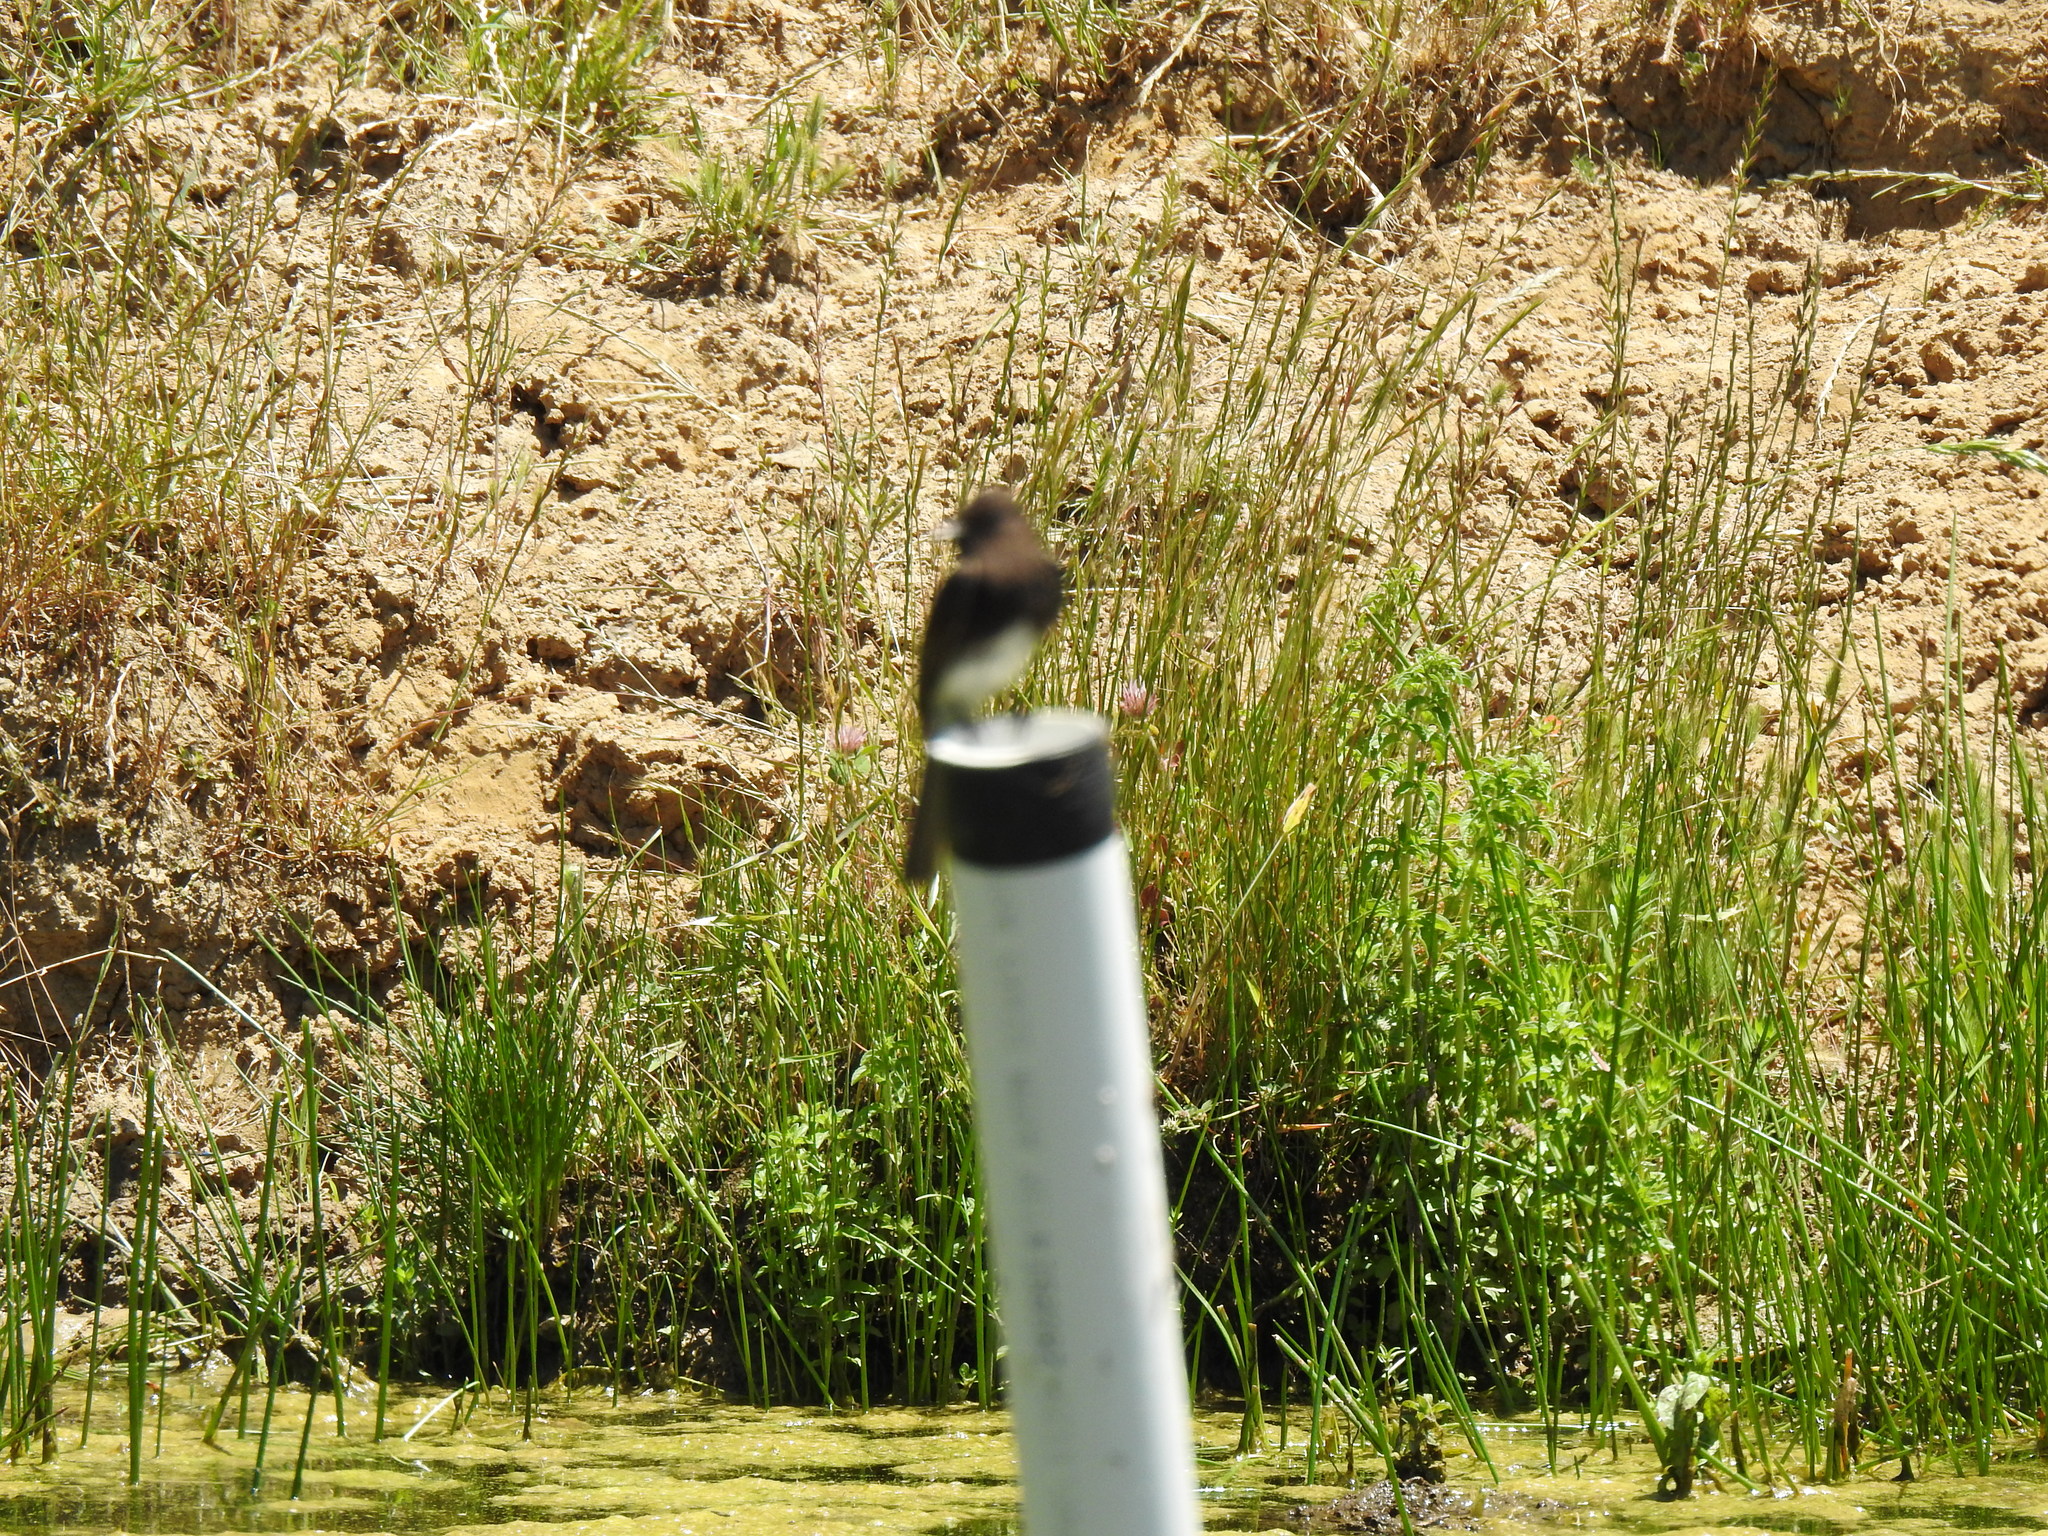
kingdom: Animalia
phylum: Chordata
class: Aves
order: Passeriformes
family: Tyrannidae
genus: Sayornis
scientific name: Sayornis nigricans
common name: Black phoebe
